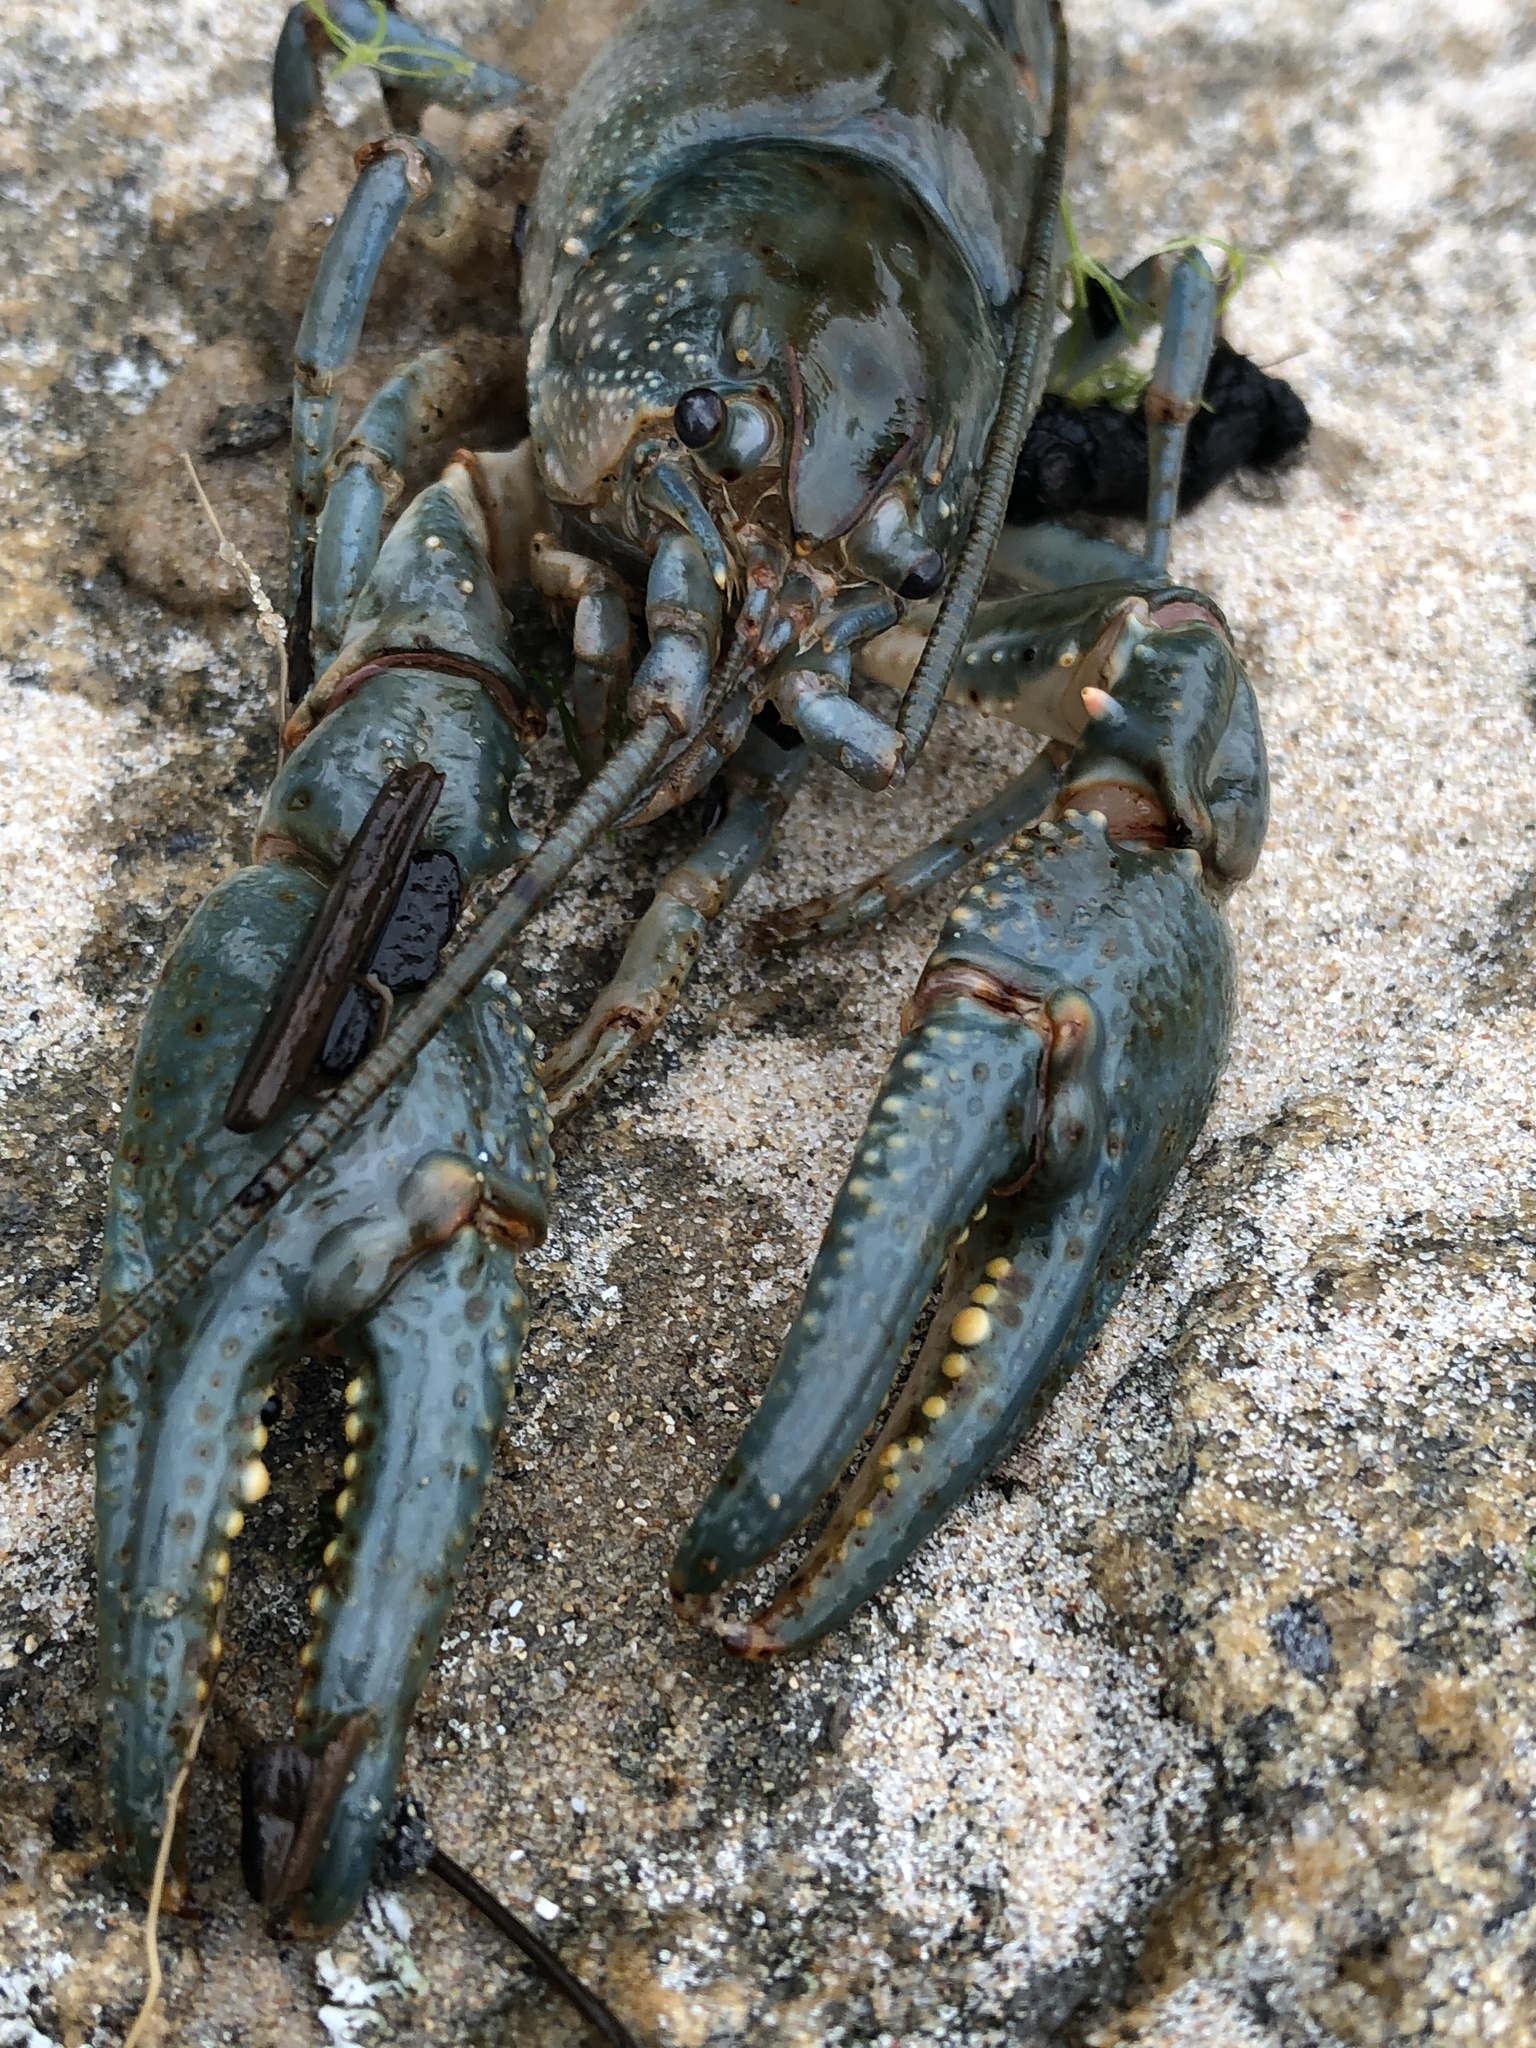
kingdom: Animalia
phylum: Arthropoda
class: Malacostraca
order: Decapoda
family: Cambaridae
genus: Cambarus
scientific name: Cambarus robustus
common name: Big water crayfish
